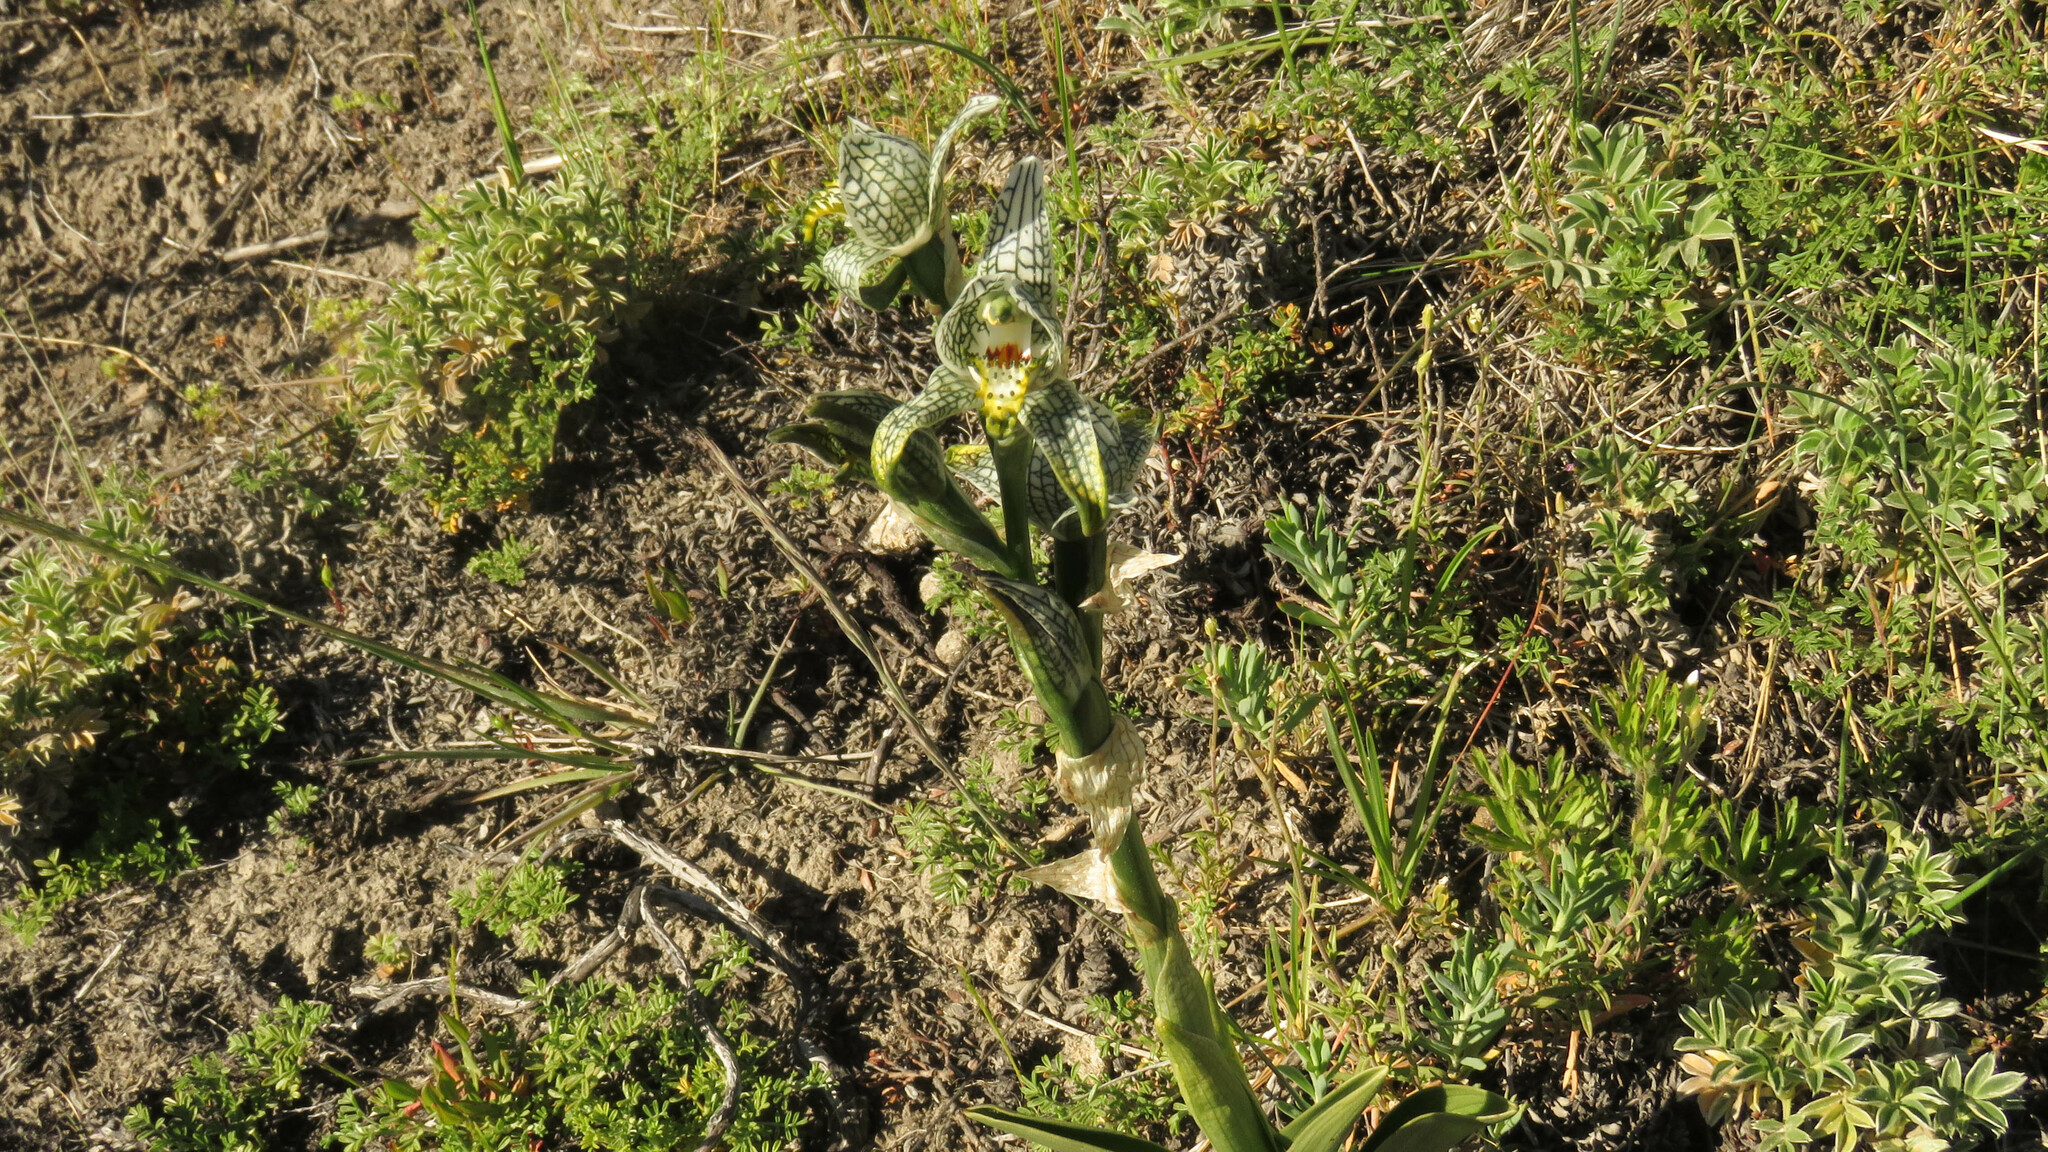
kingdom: Plantae
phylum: Tracheophyta
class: Liliopsida
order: Asparagales
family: Orchidaceae
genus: Chloraea
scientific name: Chloraea magellanica
